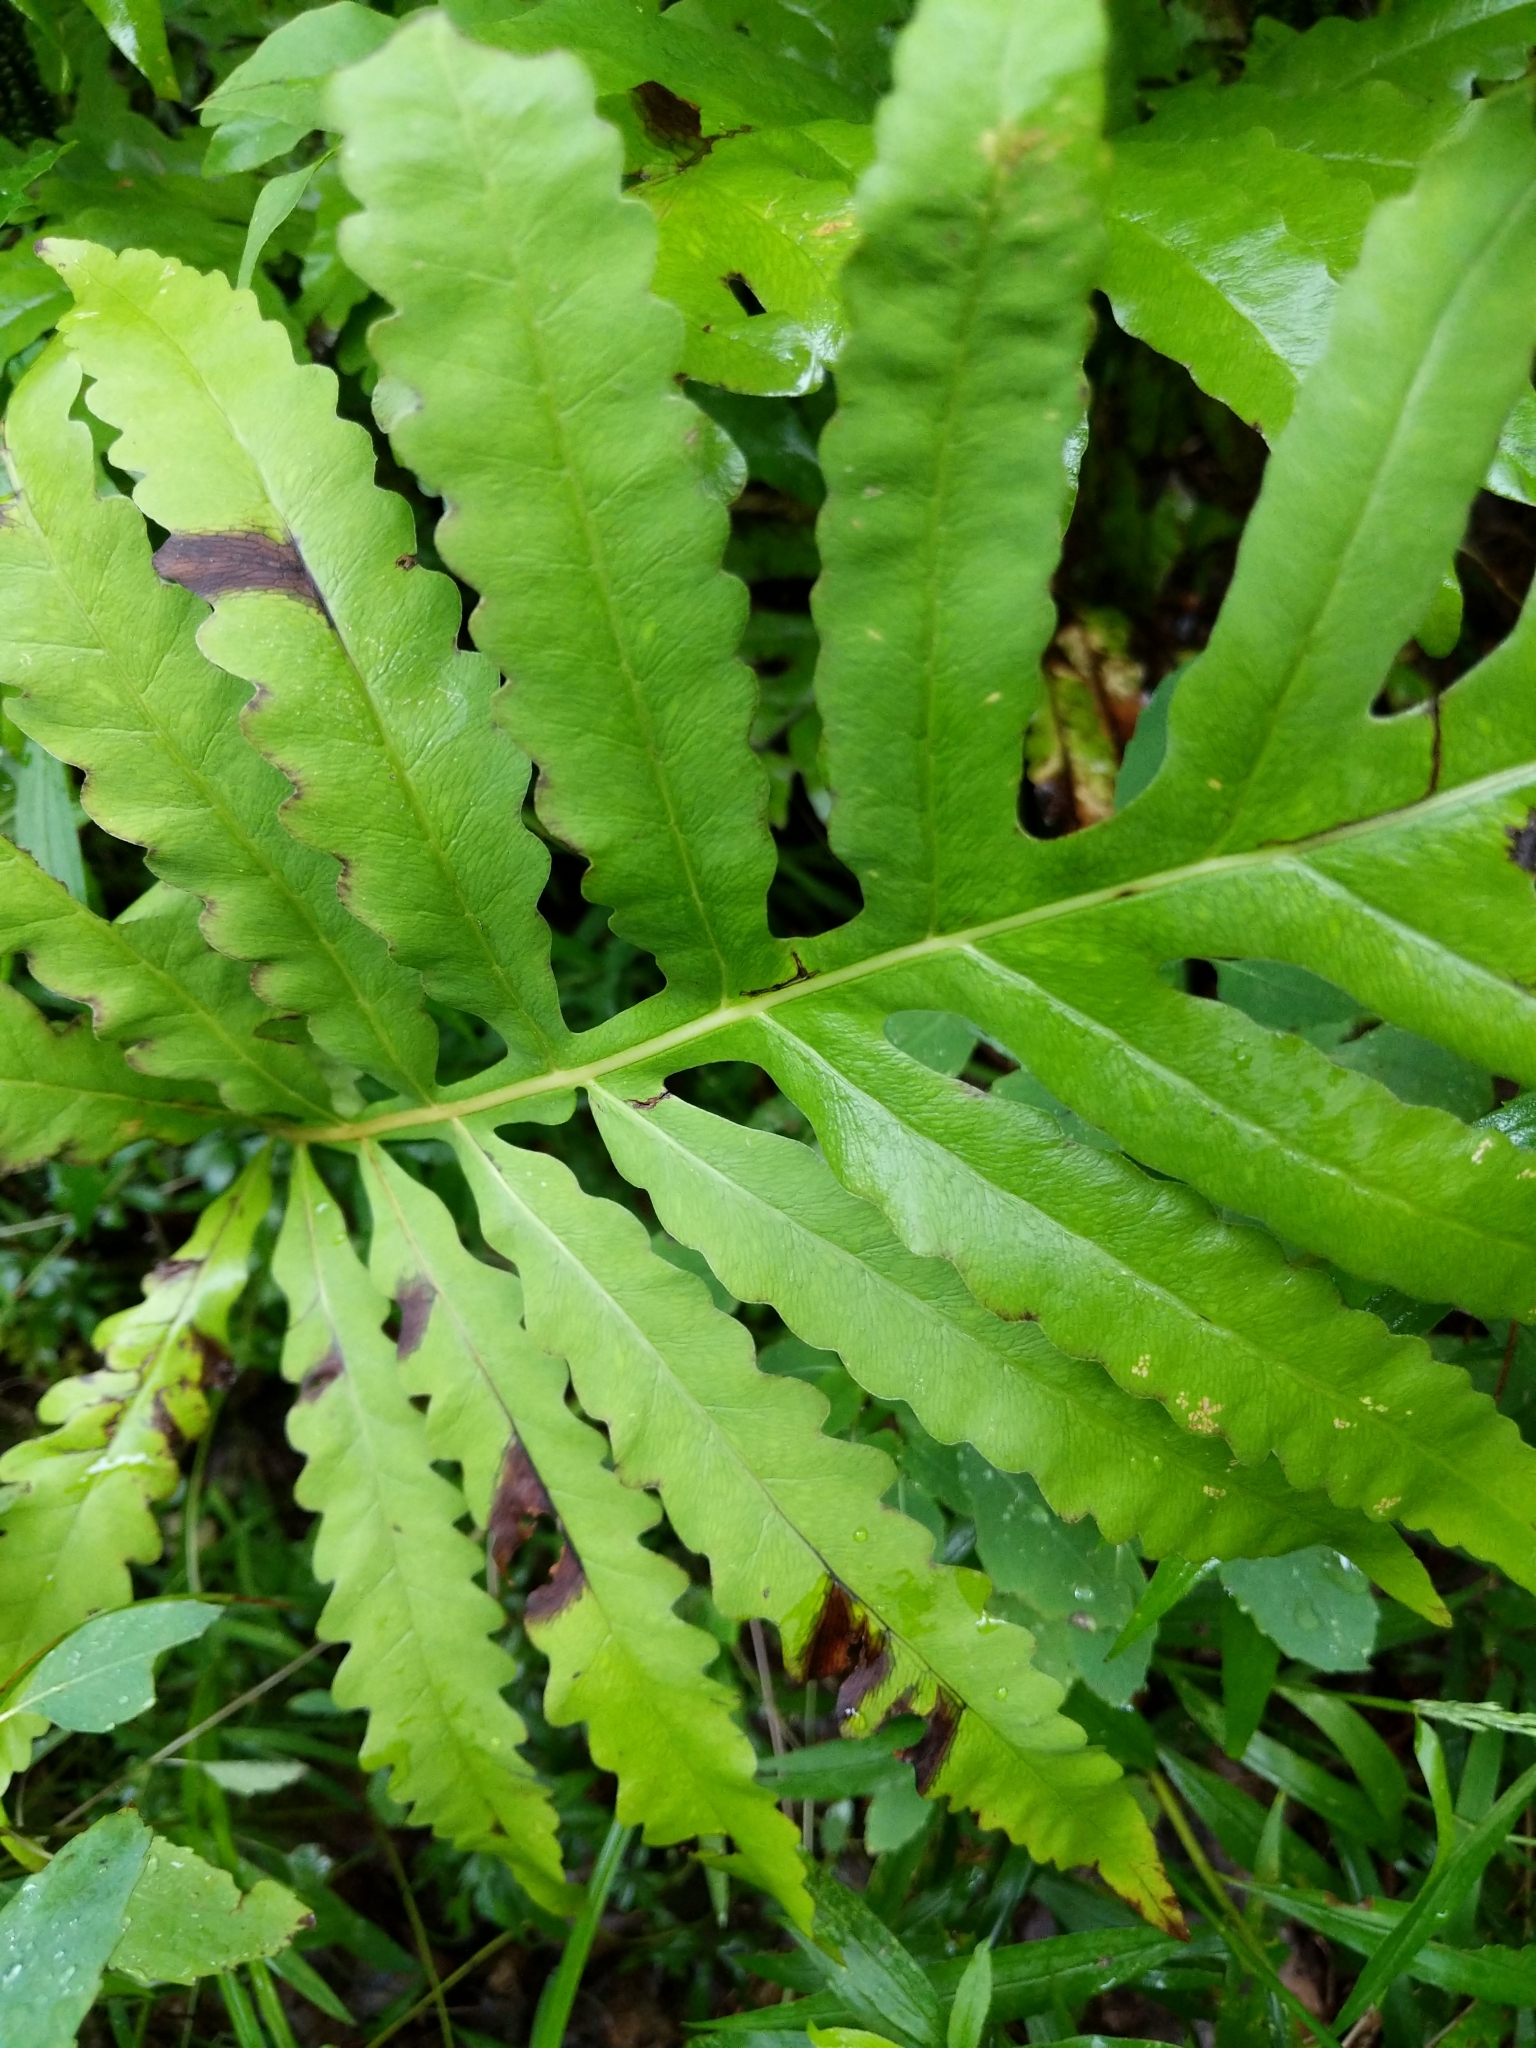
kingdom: Plantae
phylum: Tracheophyta
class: Polypodiopsida
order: Polypodiales
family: Onocleaceae
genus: Onoclea
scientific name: Onoclea sensibilis
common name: Sensitive fern
